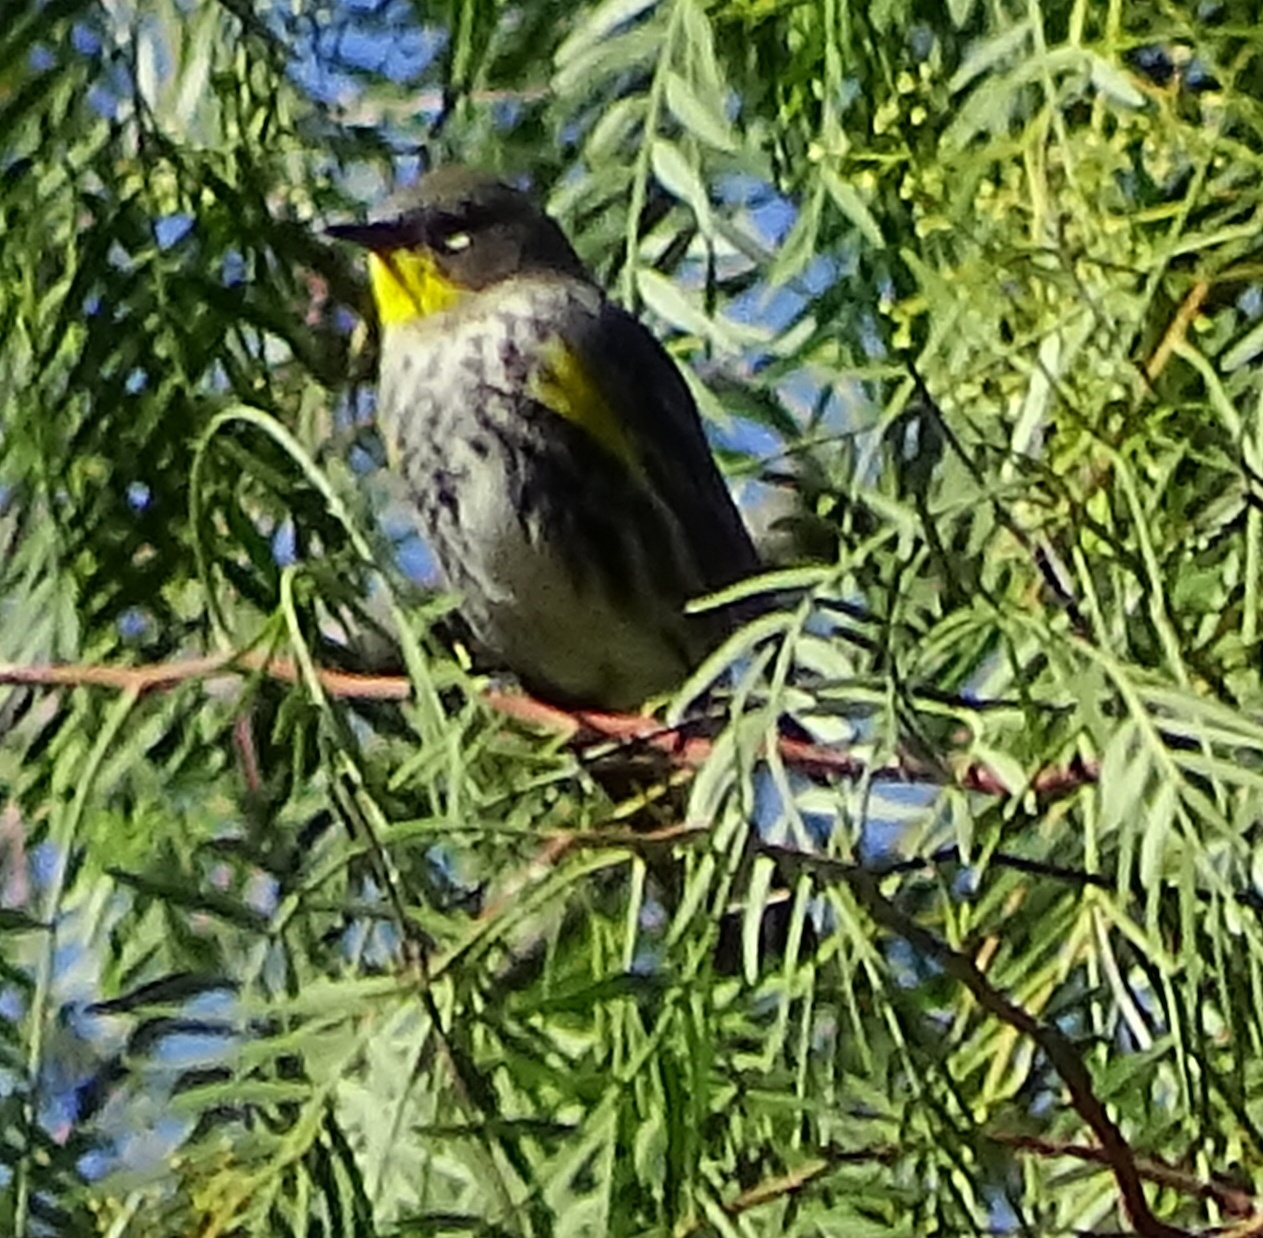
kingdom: Animalia
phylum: Chordata
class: Aves
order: Passeriformes
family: Parulidae
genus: Setophaga
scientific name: Setophaga auduboni
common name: Audubon's warbler
